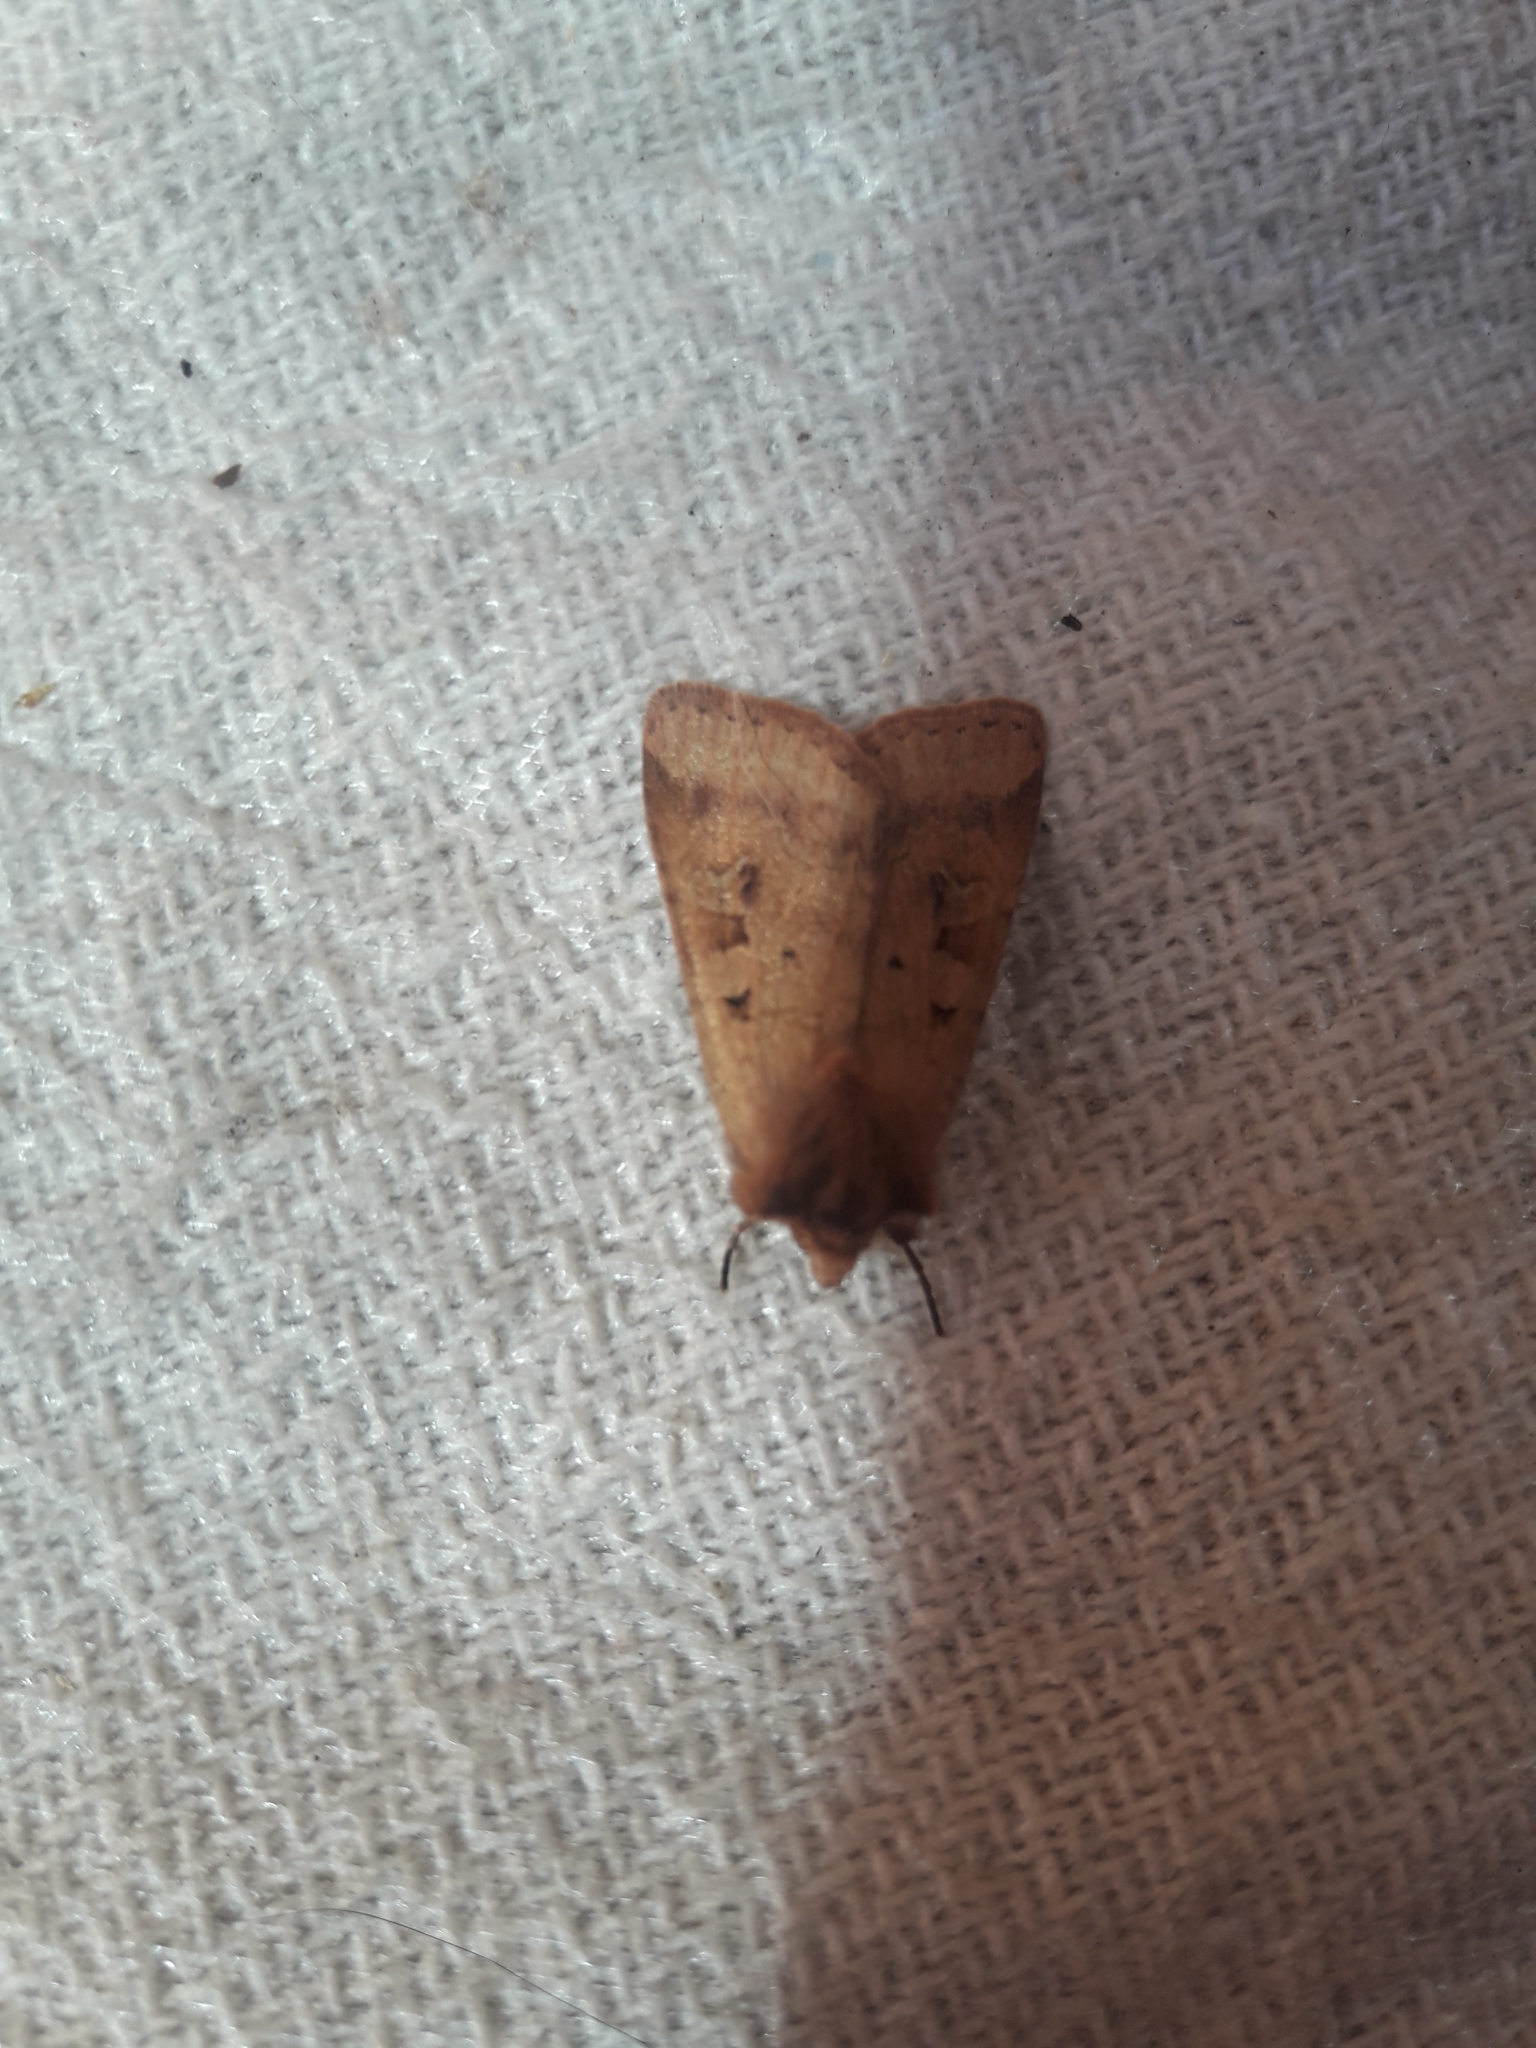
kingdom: Animalia
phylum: Arthropoda
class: Insecta
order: Lepidoptera
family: Noctuidae
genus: Diarsia
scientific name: Diarsia mendica
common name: Ingrailed clay
